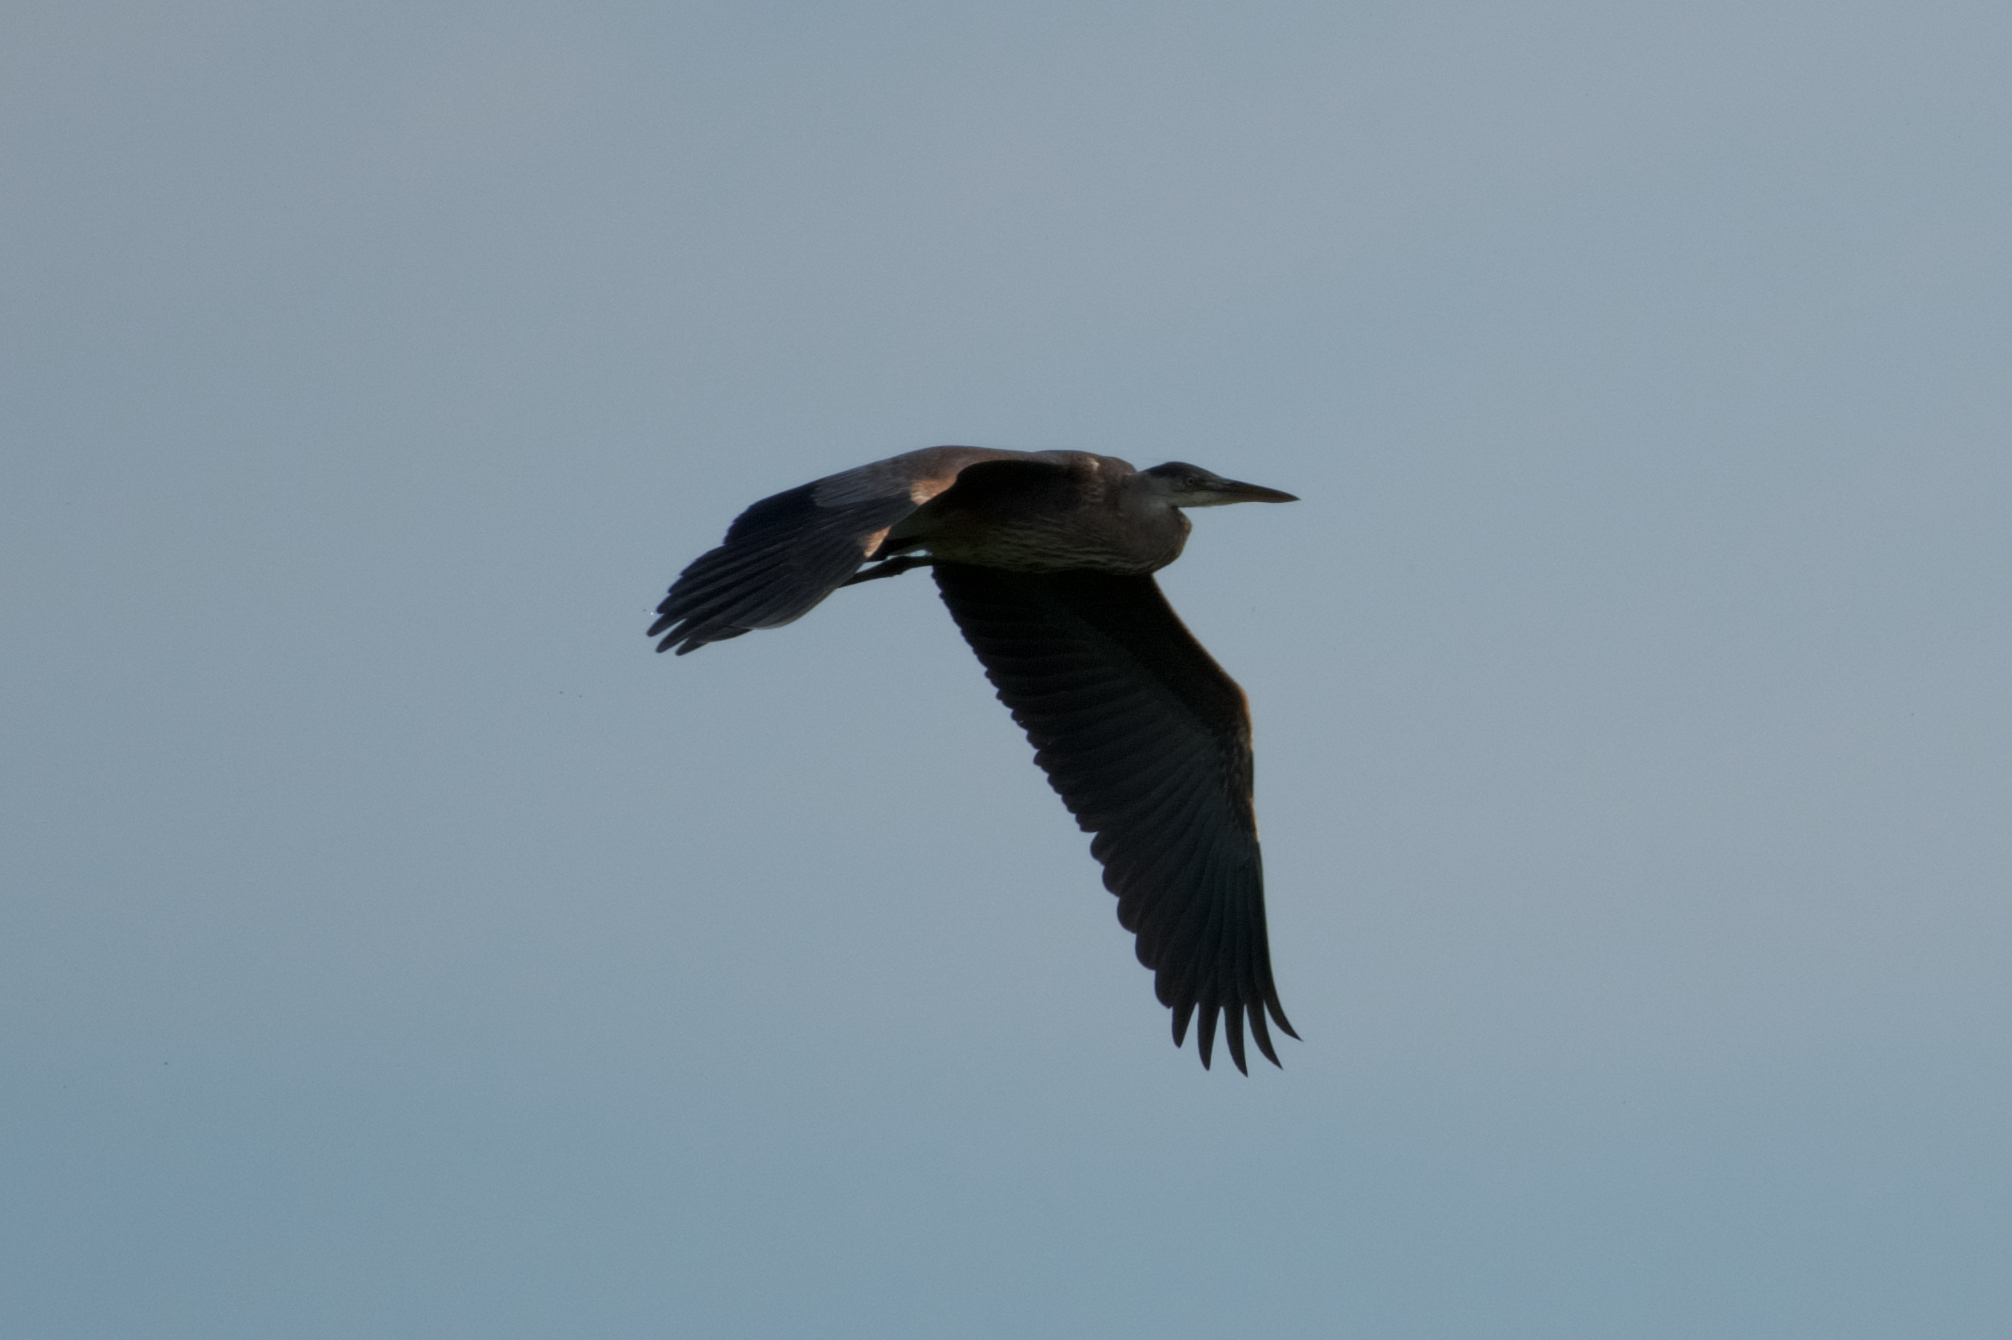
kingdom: Animalia
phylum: Chordata
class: Aves
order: Pelecaniformes
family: Ardeidae
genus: Ardea
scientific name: Ardea herodias
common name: Great blue heron
